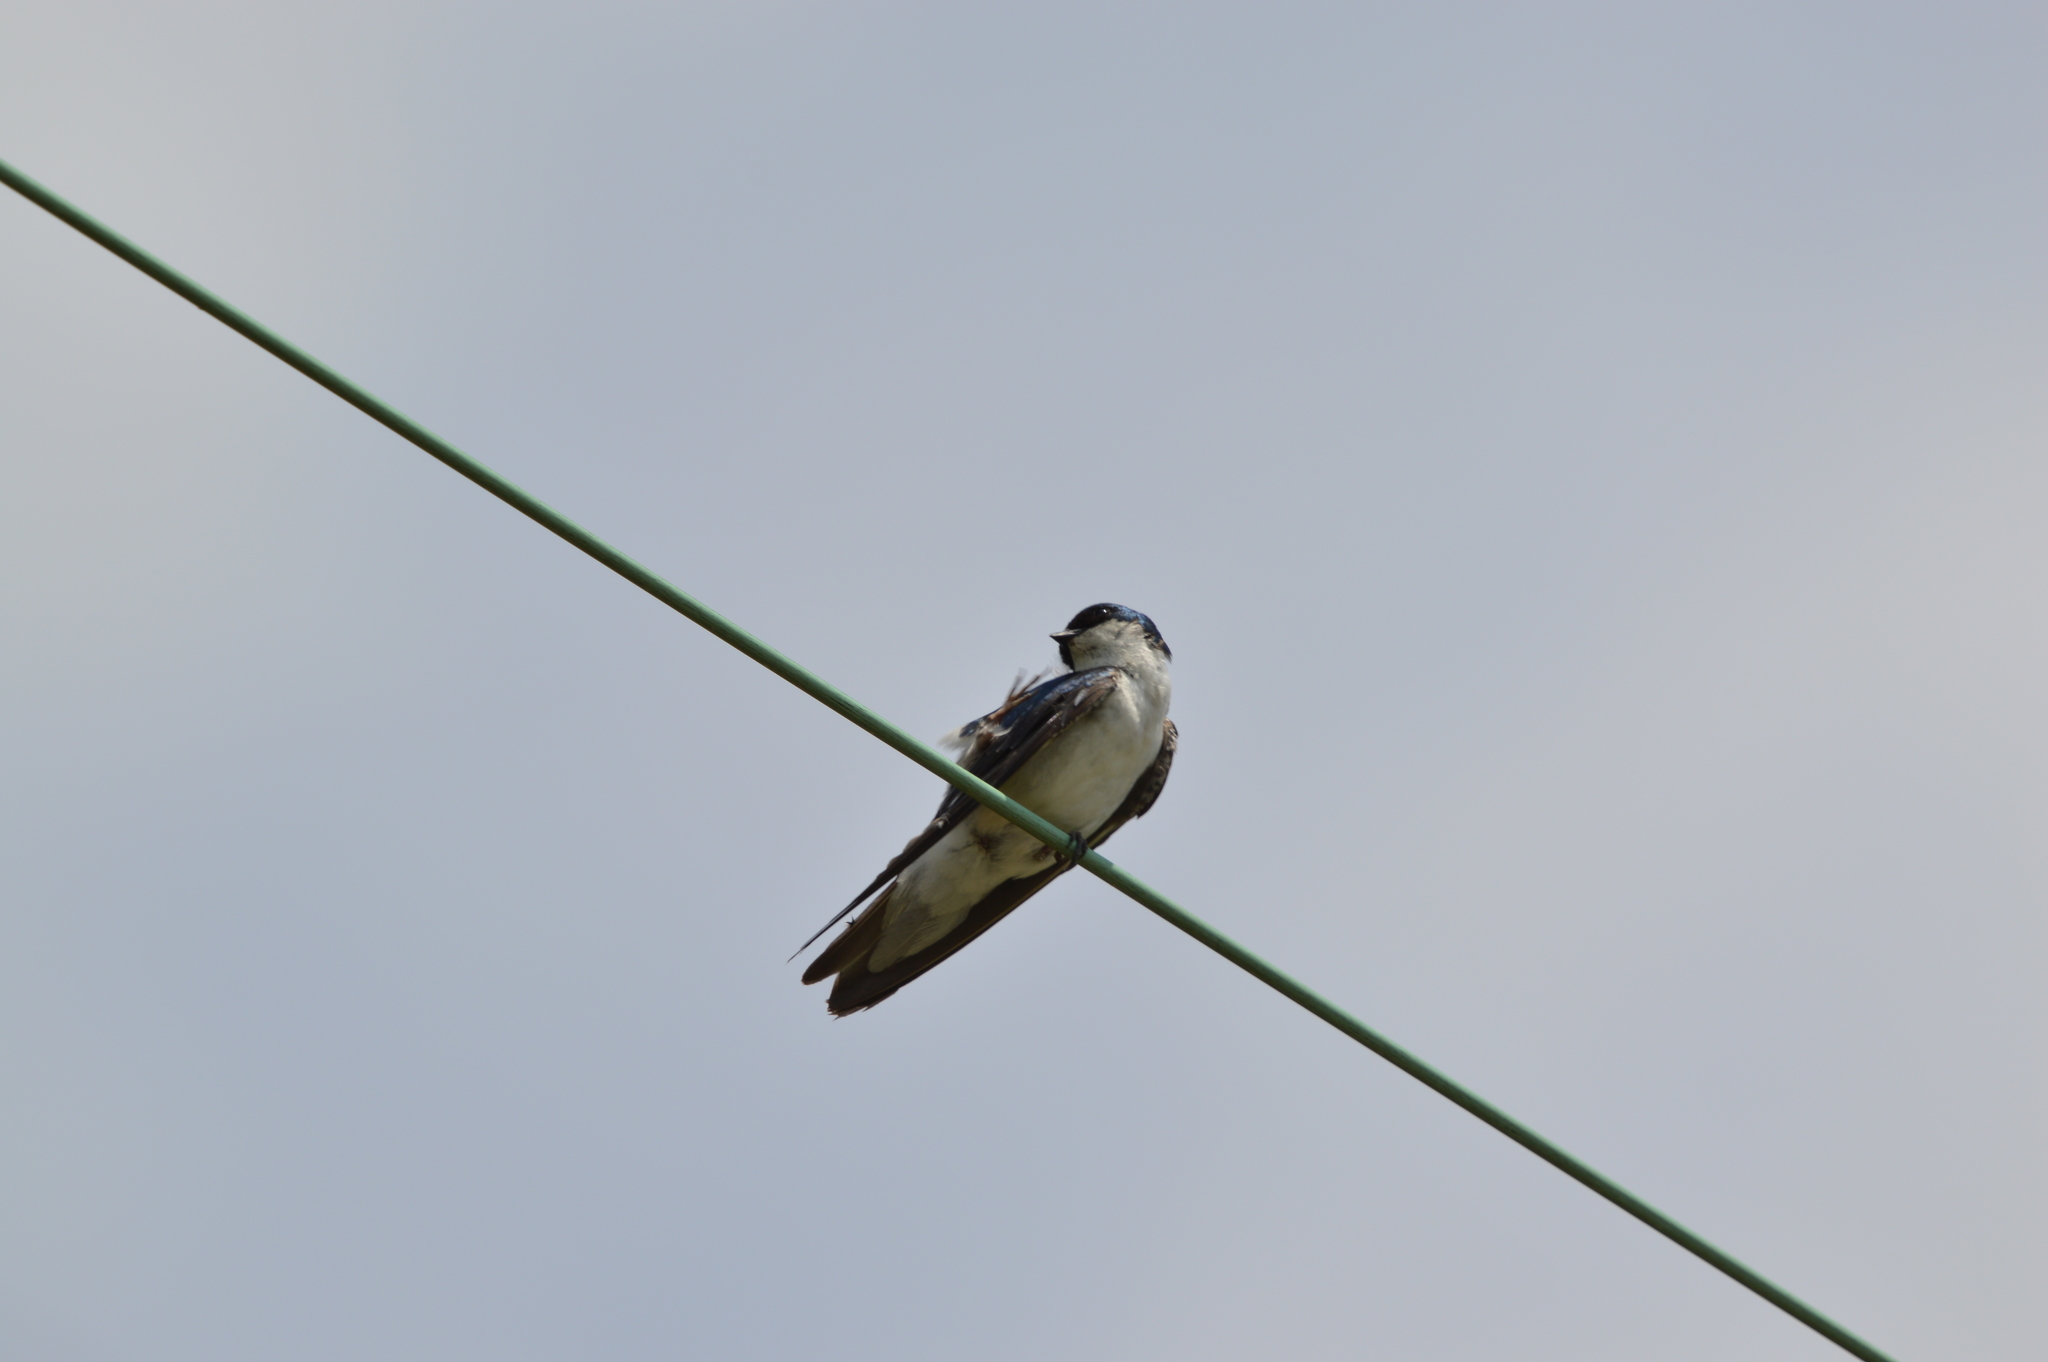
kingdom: Animalia
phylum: Chordata
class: Aves
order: Passeriformes
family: Hirundinidae
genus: Tachycineta
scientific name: Tachycineta bicolor
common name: Tree swallow
